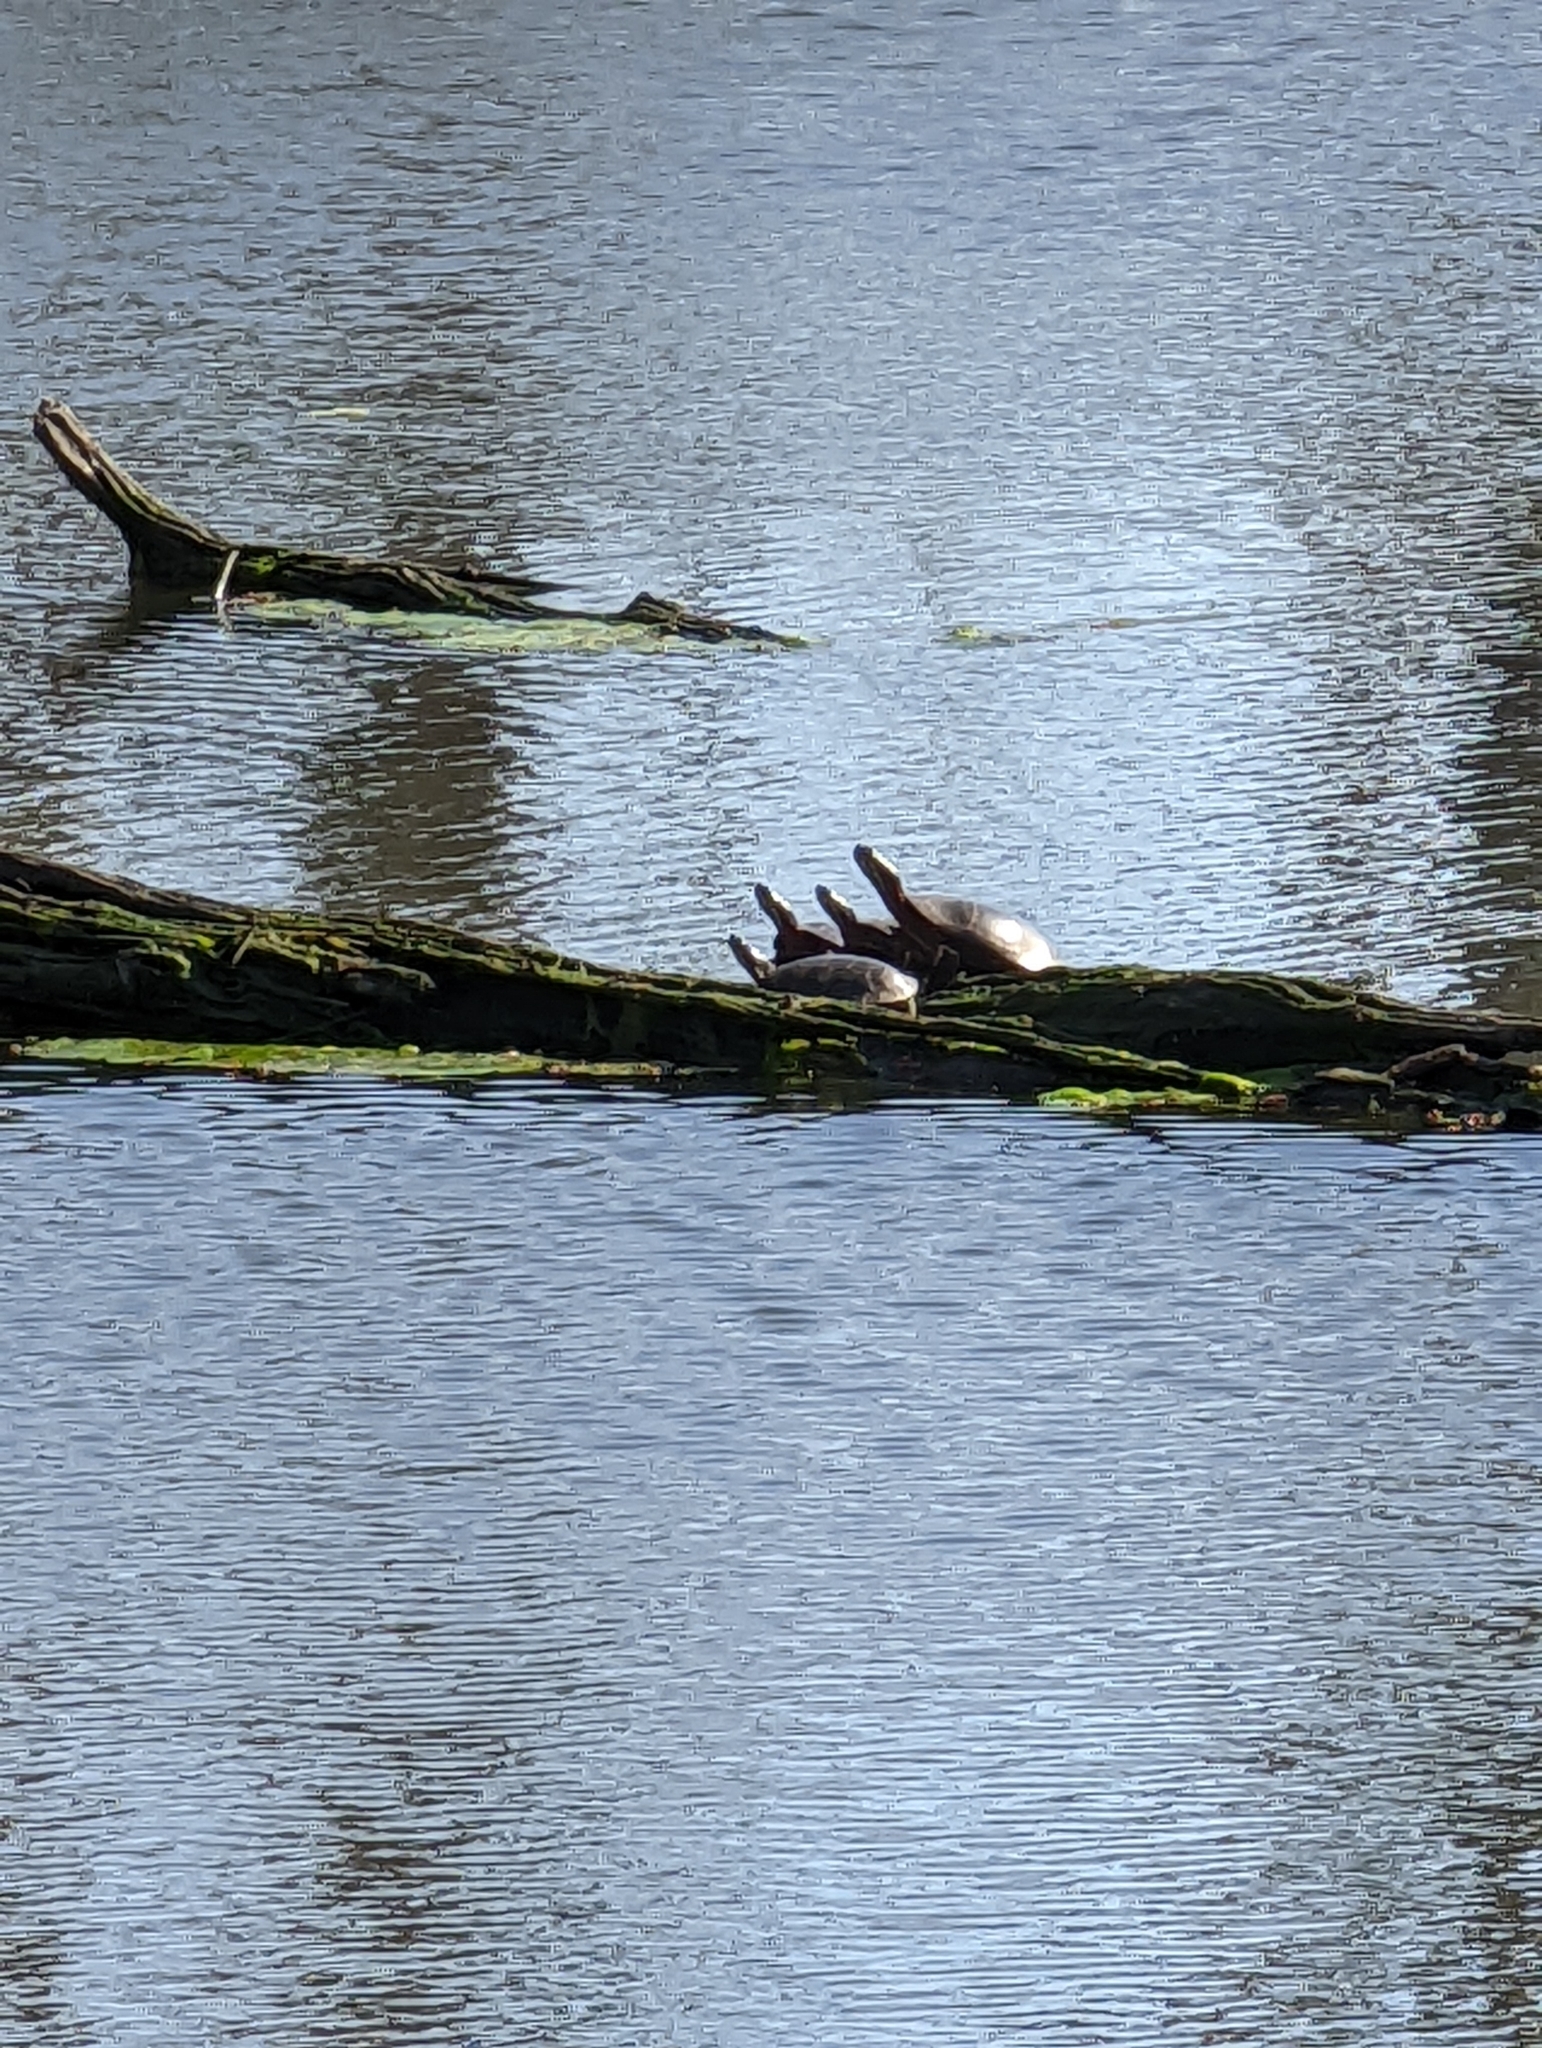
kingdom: Animalia
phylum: Chordata
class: Testudines
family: Emydidae
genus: Chrysemys
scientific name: Chrysemys picta
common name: Painted turtle
